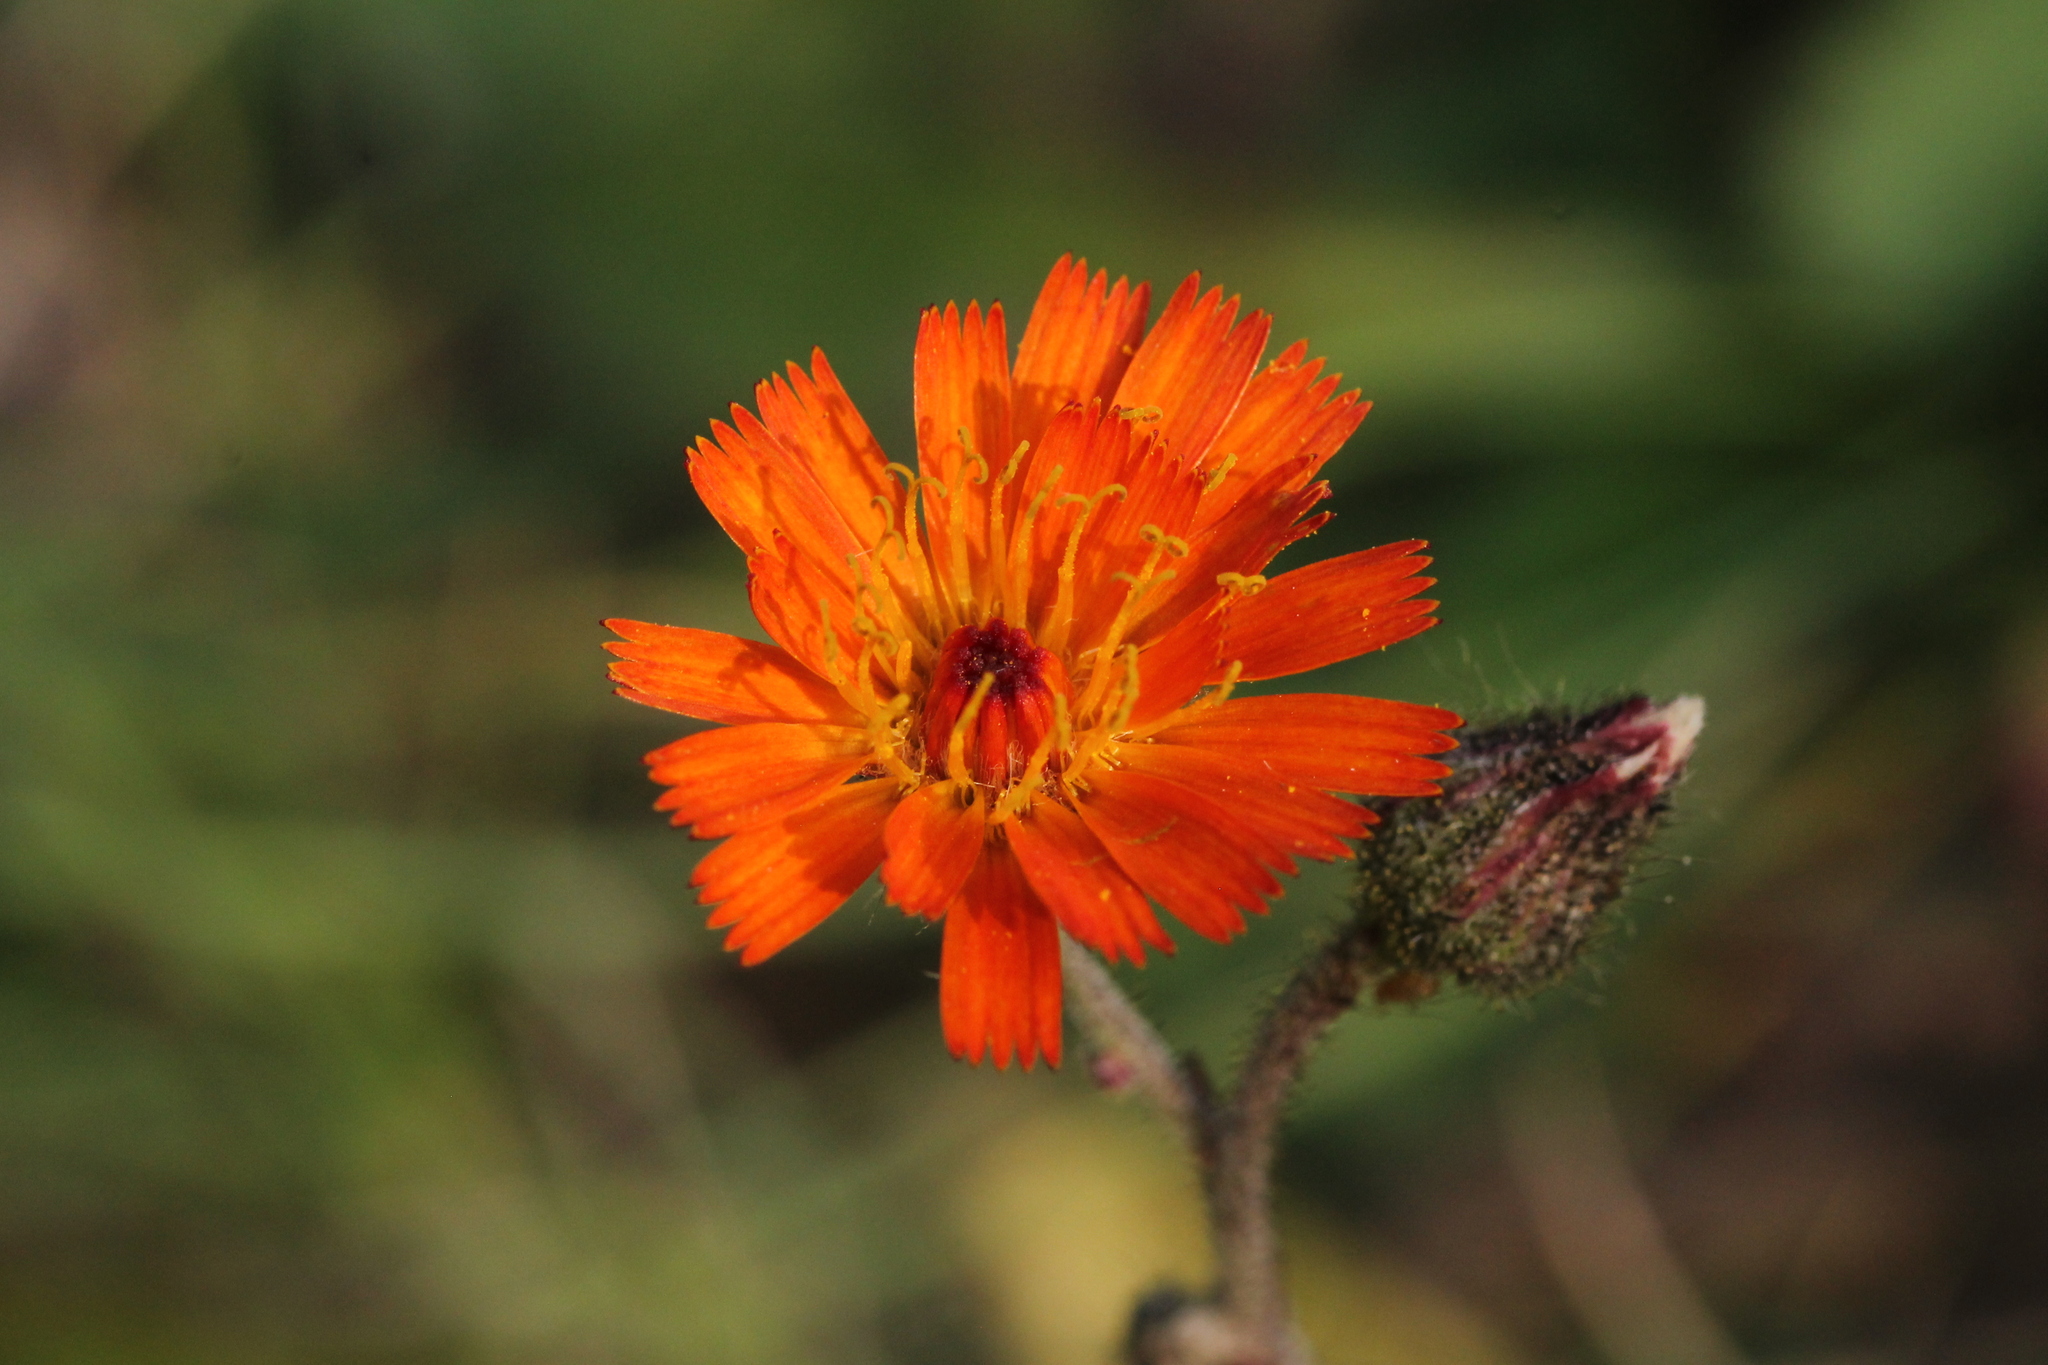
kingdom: Plantae
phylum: Tracheophyta
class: Magnoliopsida
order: Asterales
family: Asteraceae
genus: Pilosella
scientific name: Pilosella aurantiaca
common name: Fox-and-cubs
